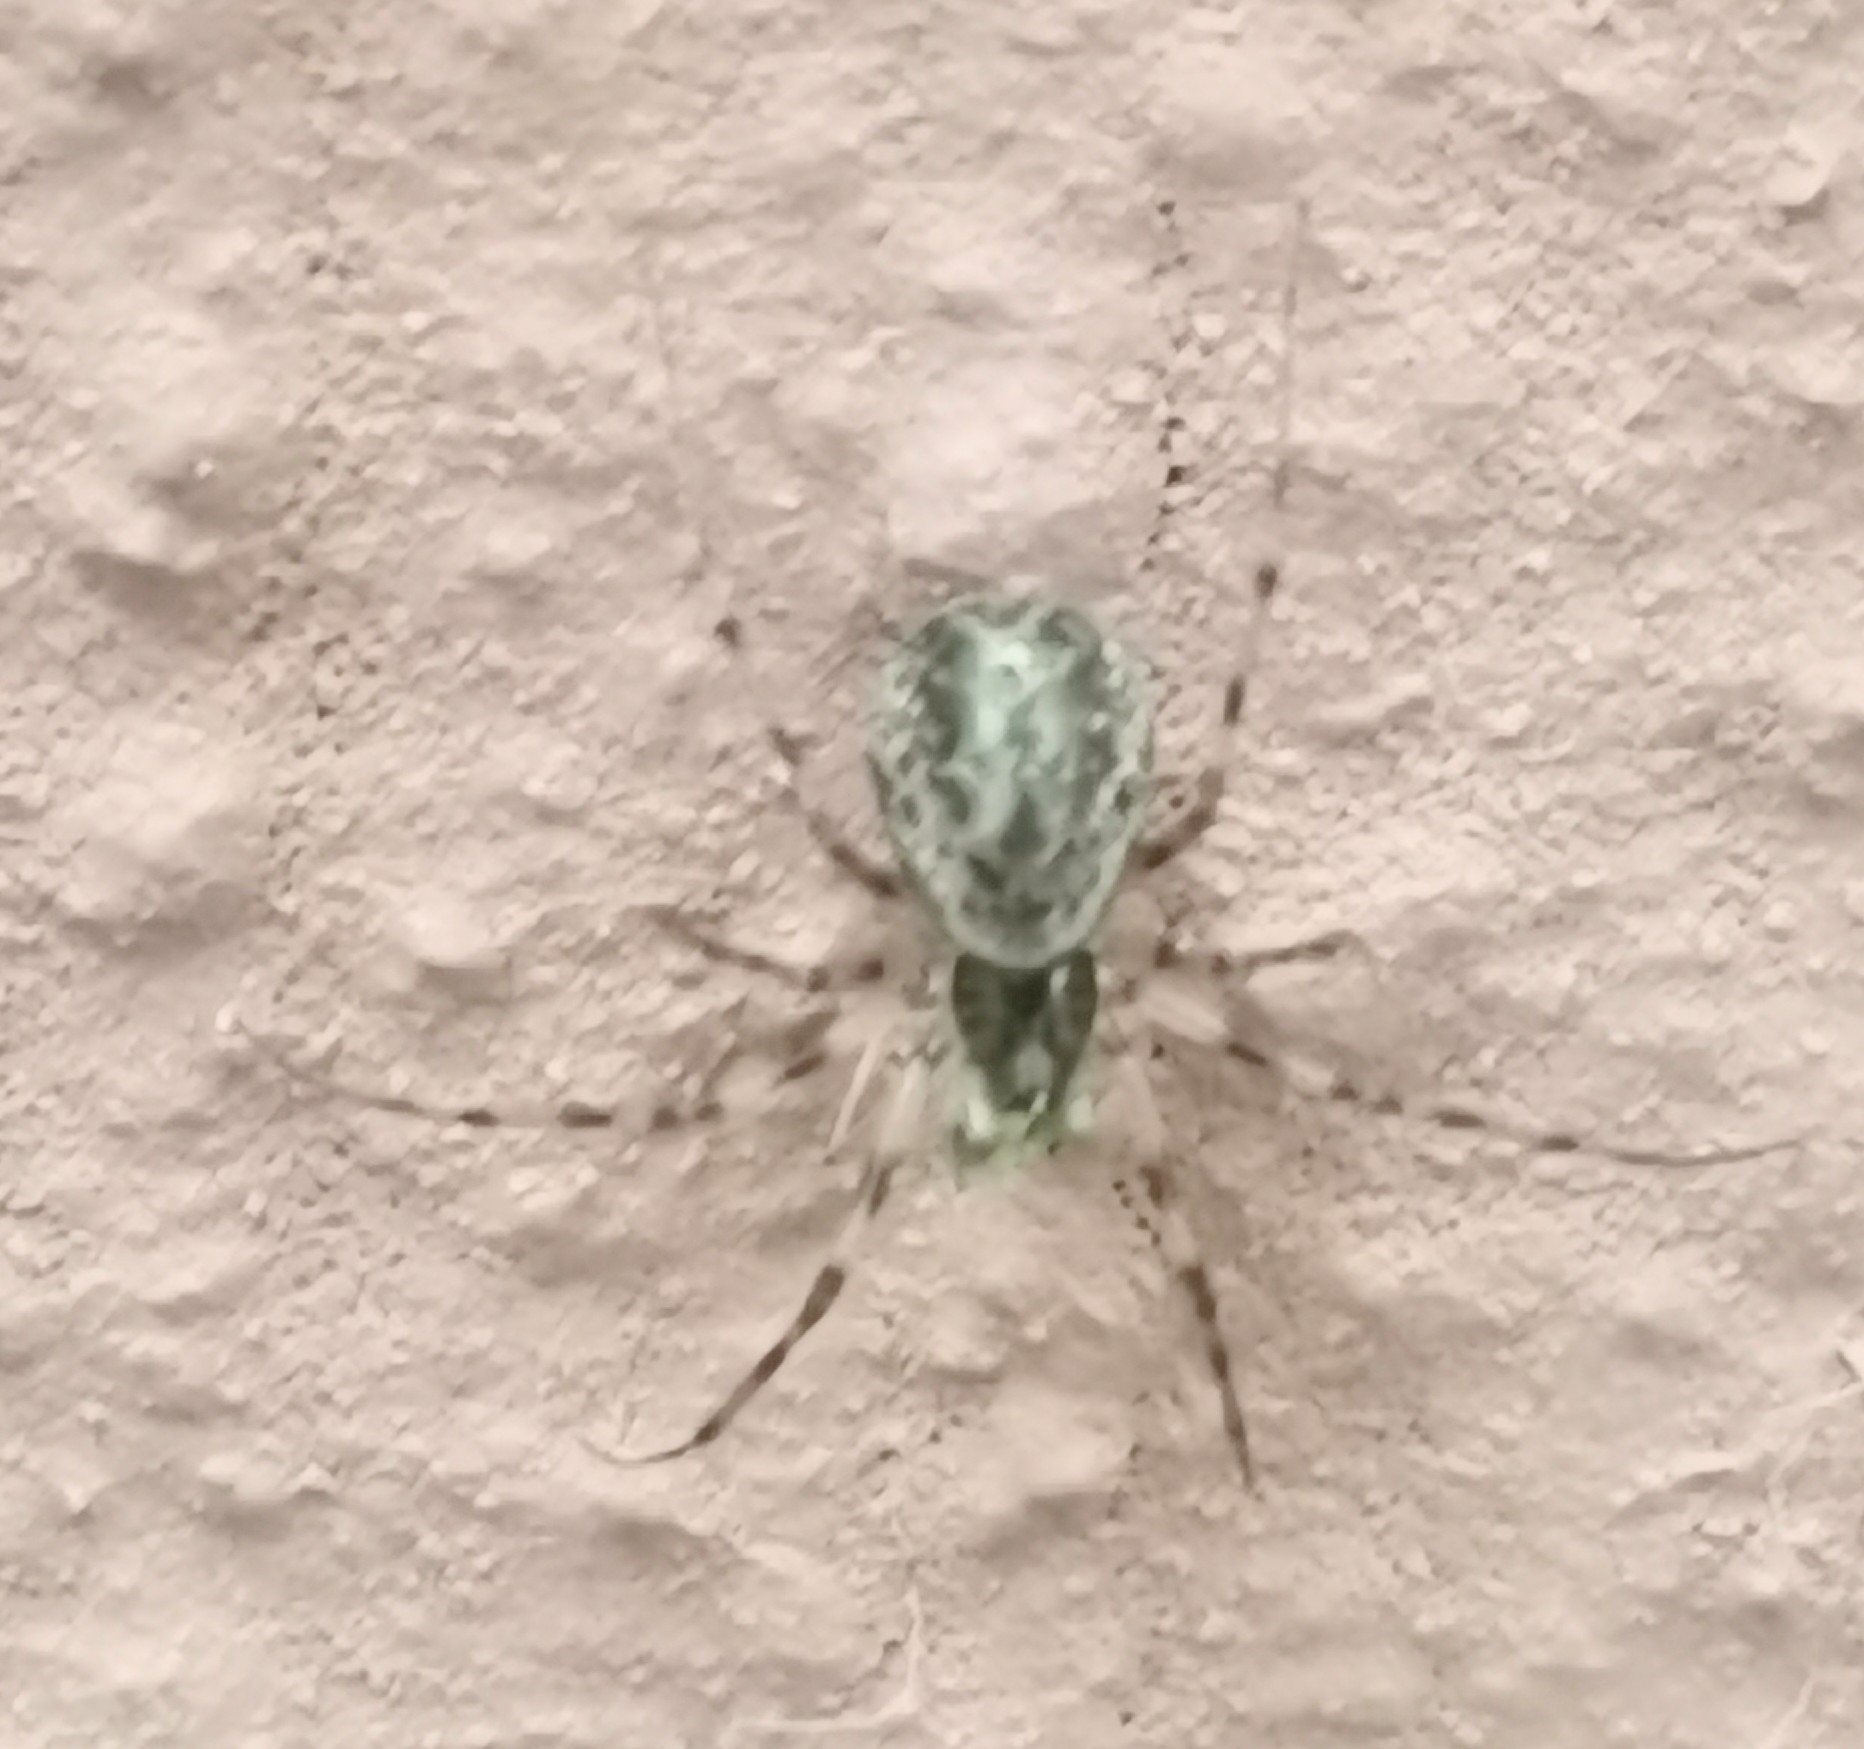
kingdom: Animalia
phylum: Arthropoda
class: Arachnida
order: Araneae
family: Linyphiidae
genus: Drapetisca
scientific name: Drapetisca socialis
